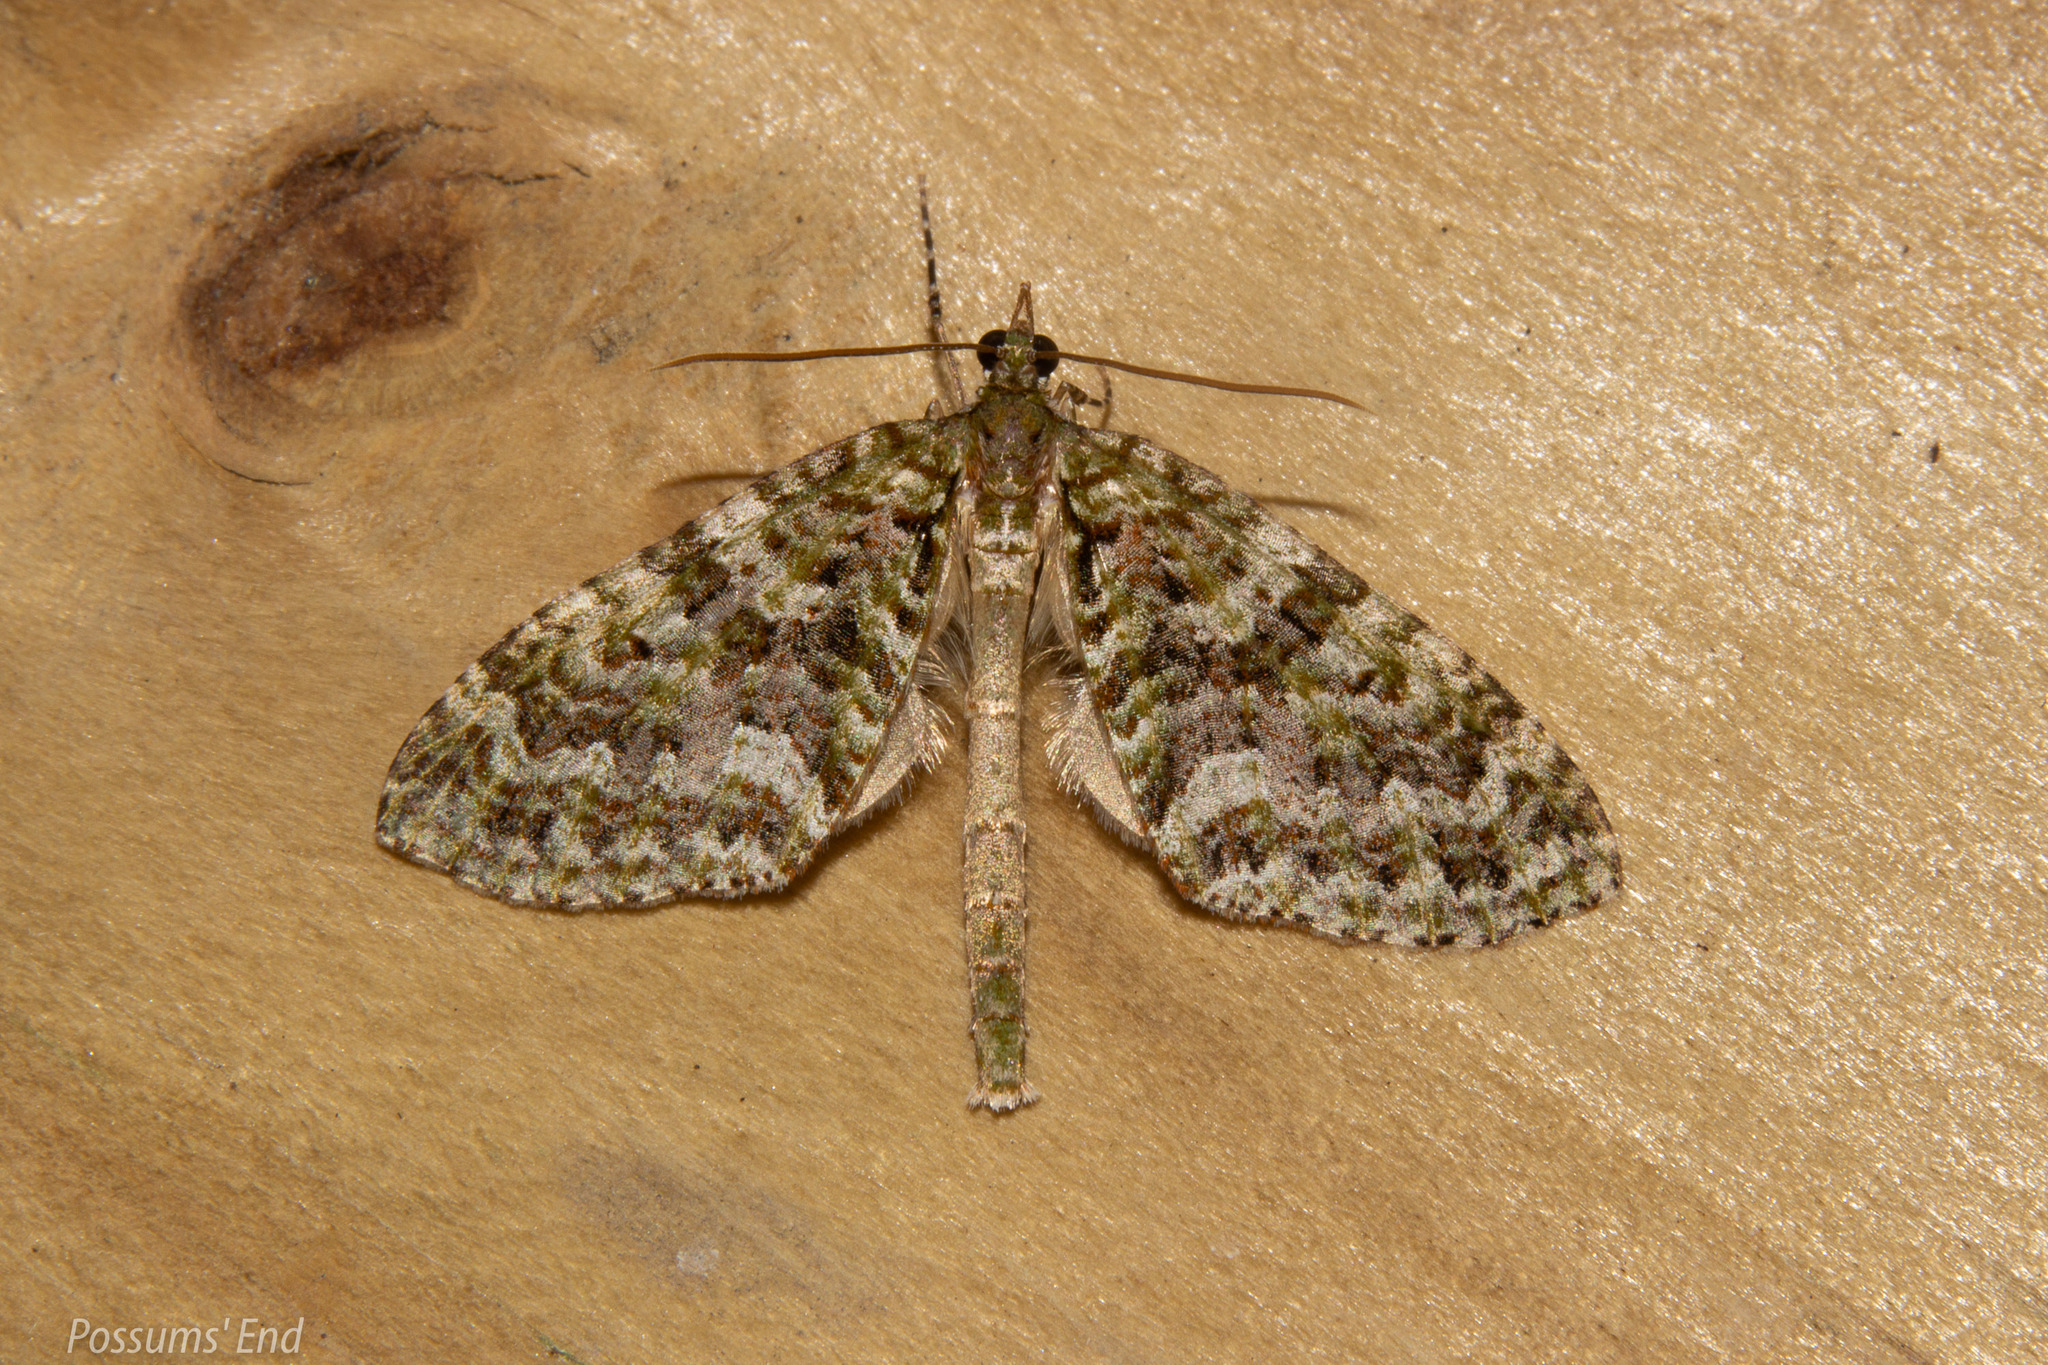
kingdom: Animalia
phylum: Arthropoda
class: Insecta
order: Lepidoptera
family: Geometridae
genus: Tatosoma
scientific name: Tatosoma agrionata
